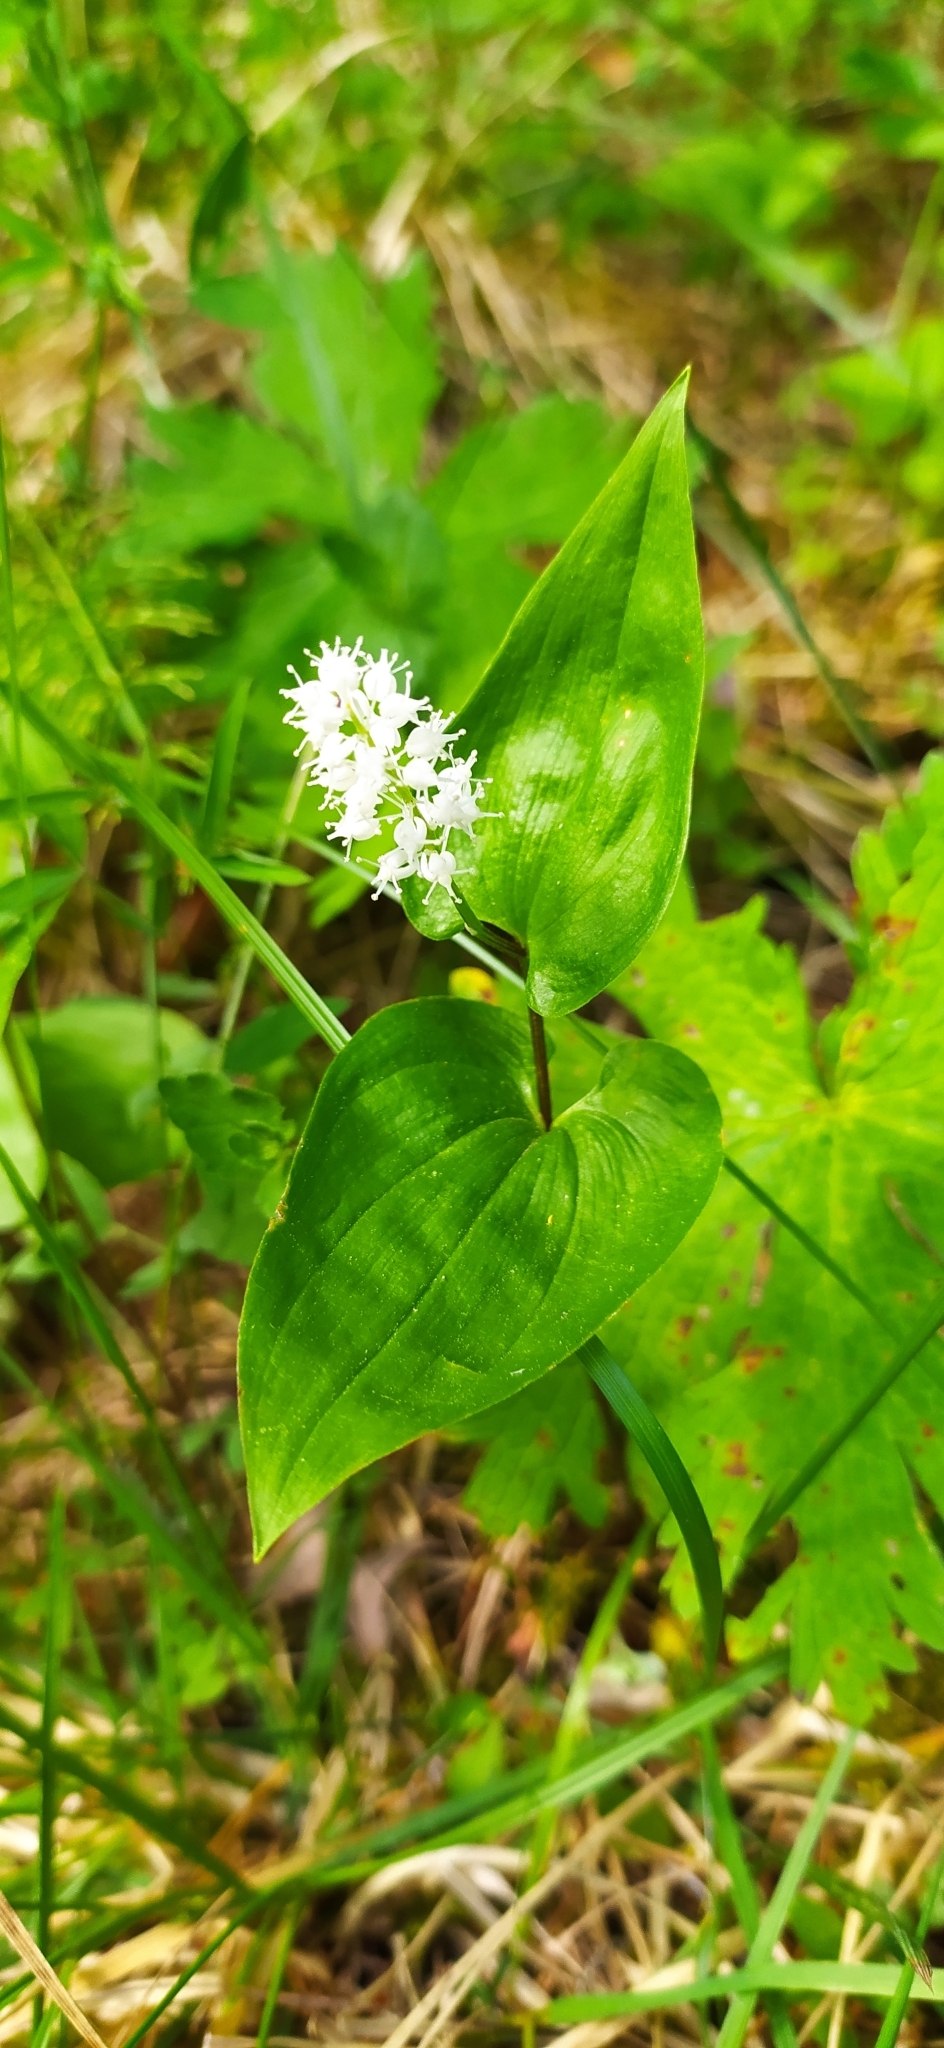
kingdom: Plantae
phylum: Tracheophyta
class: Liliopsida
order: Asparagales
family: Asparagaceae
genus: Maianthemum
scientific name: Maianthemum bifolium
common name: May lily
